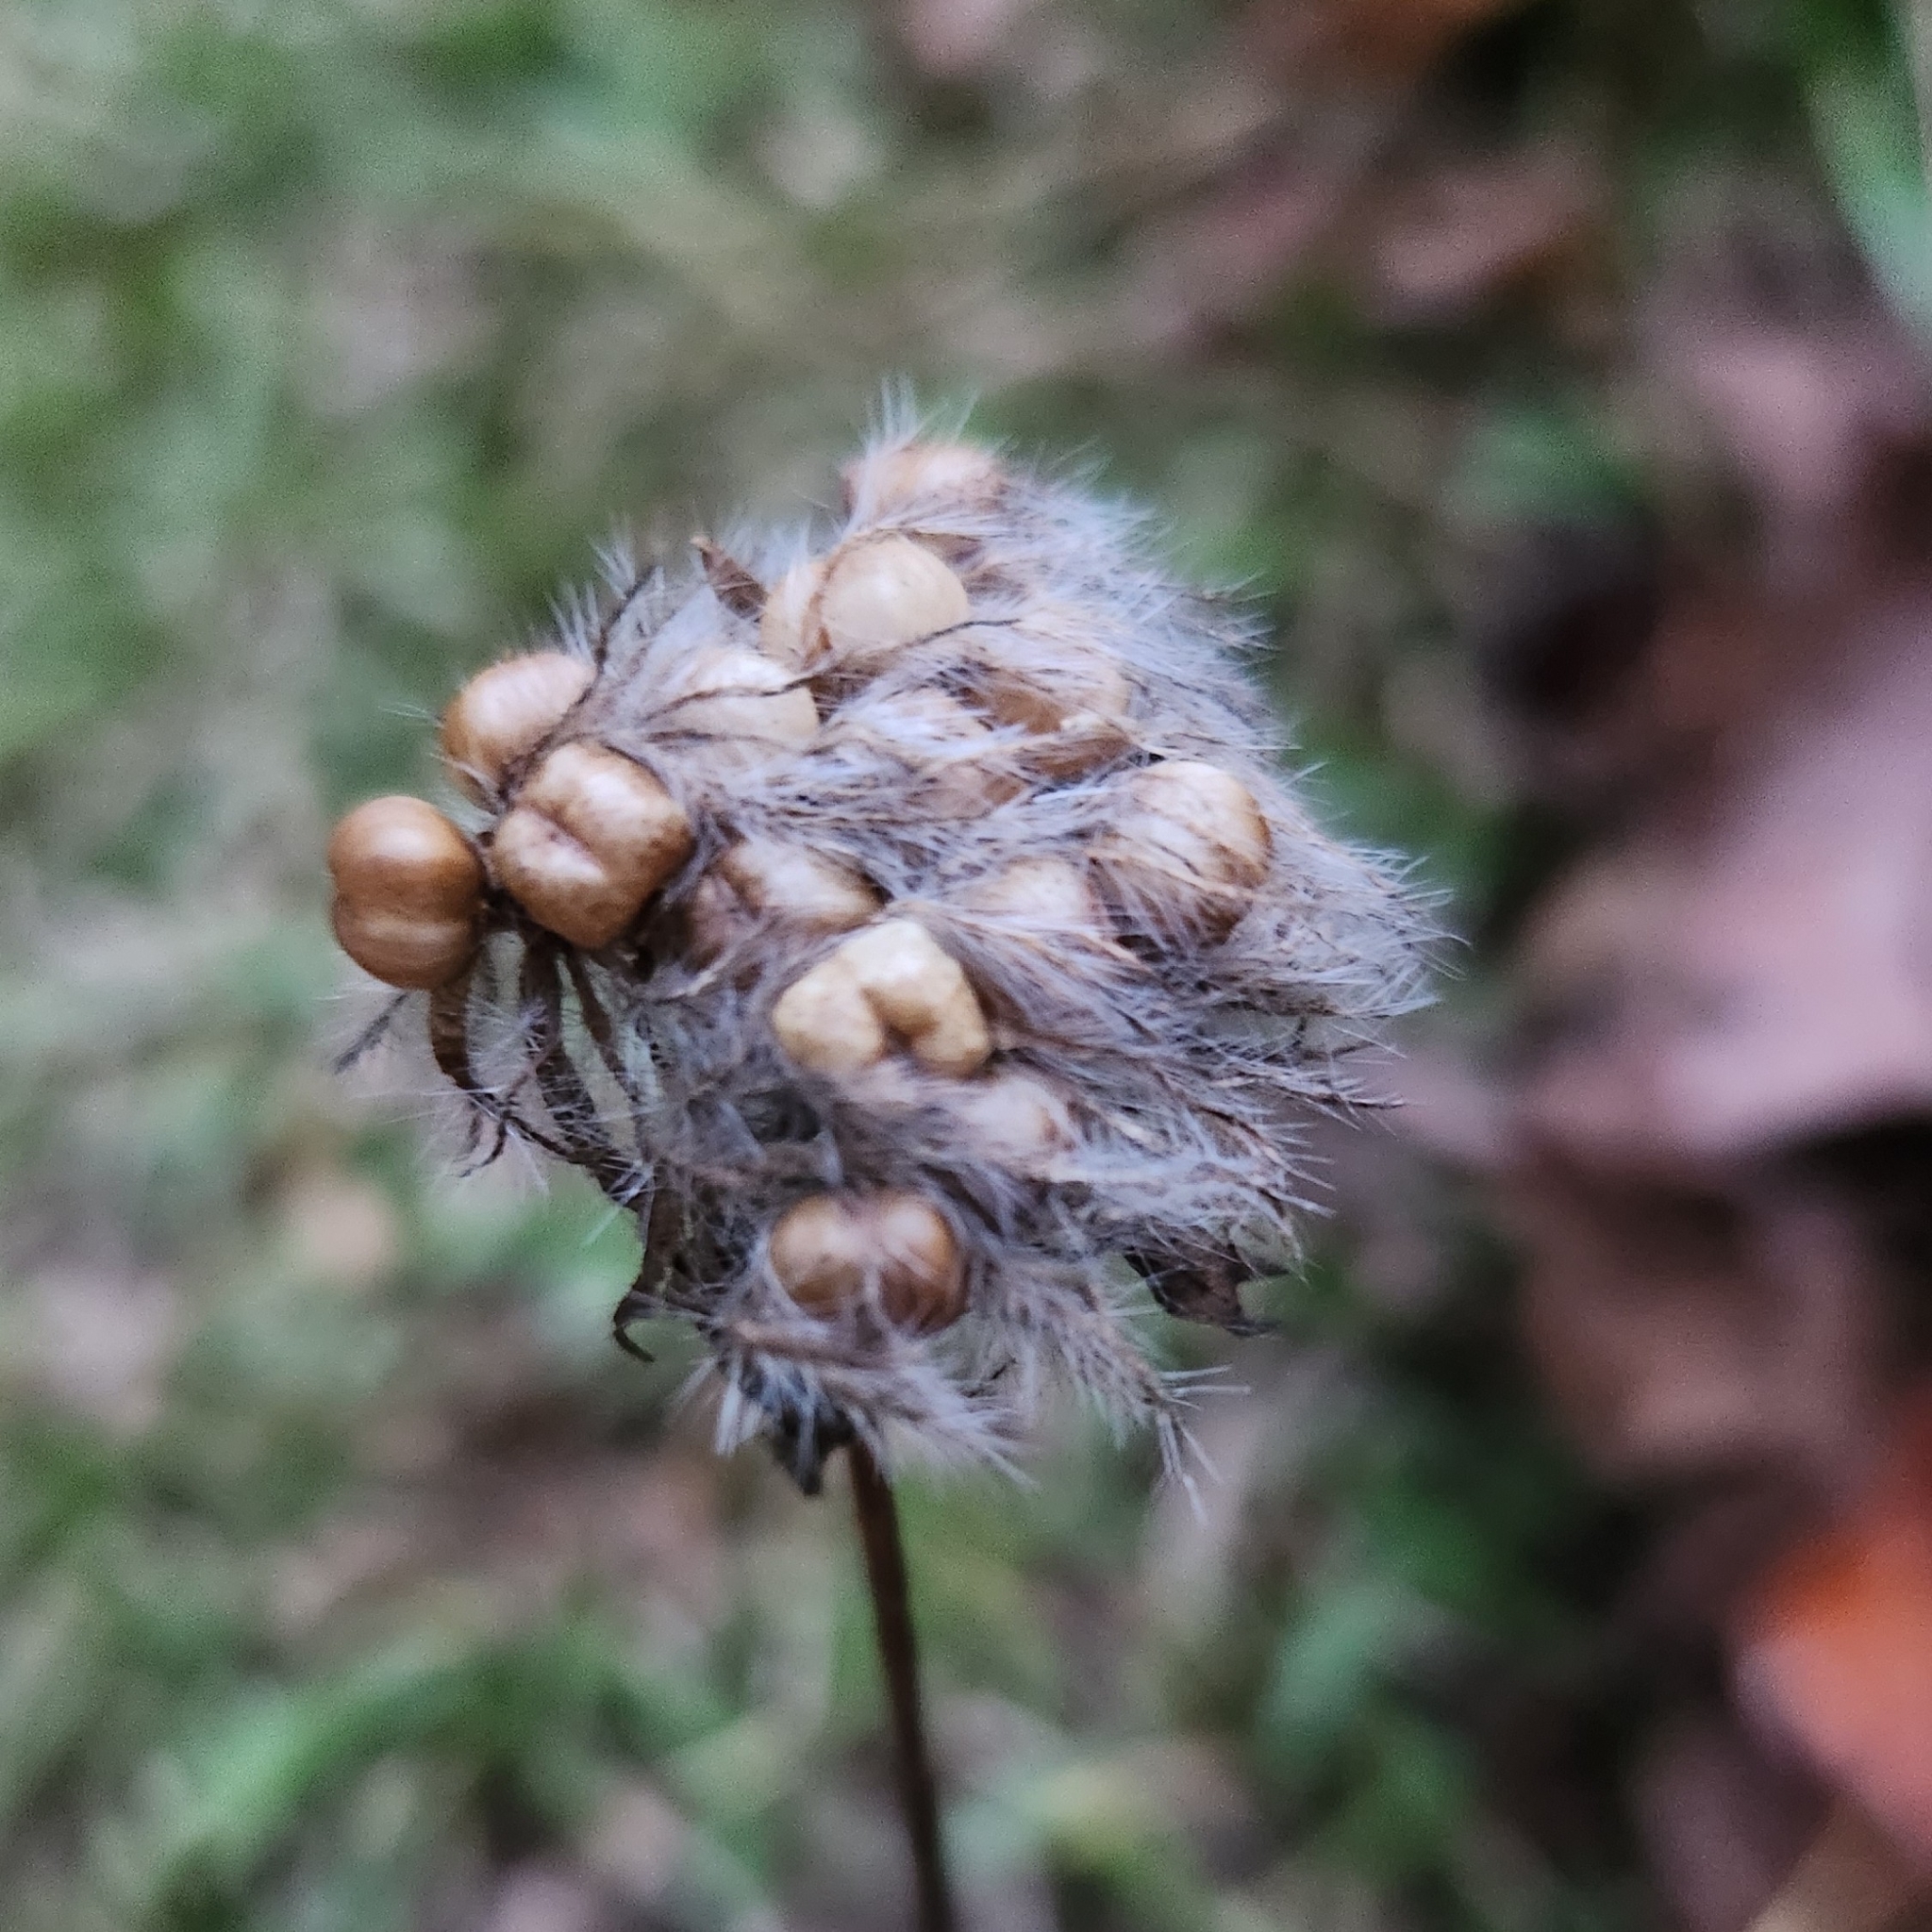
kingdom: Plantae
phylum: Tracheophyta
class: Magnoliopsida
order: Solanales
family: Convolvulaceae
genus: Jacquemontia
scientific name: Jacquemontia tamnifolia
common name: Hairy clustervine
